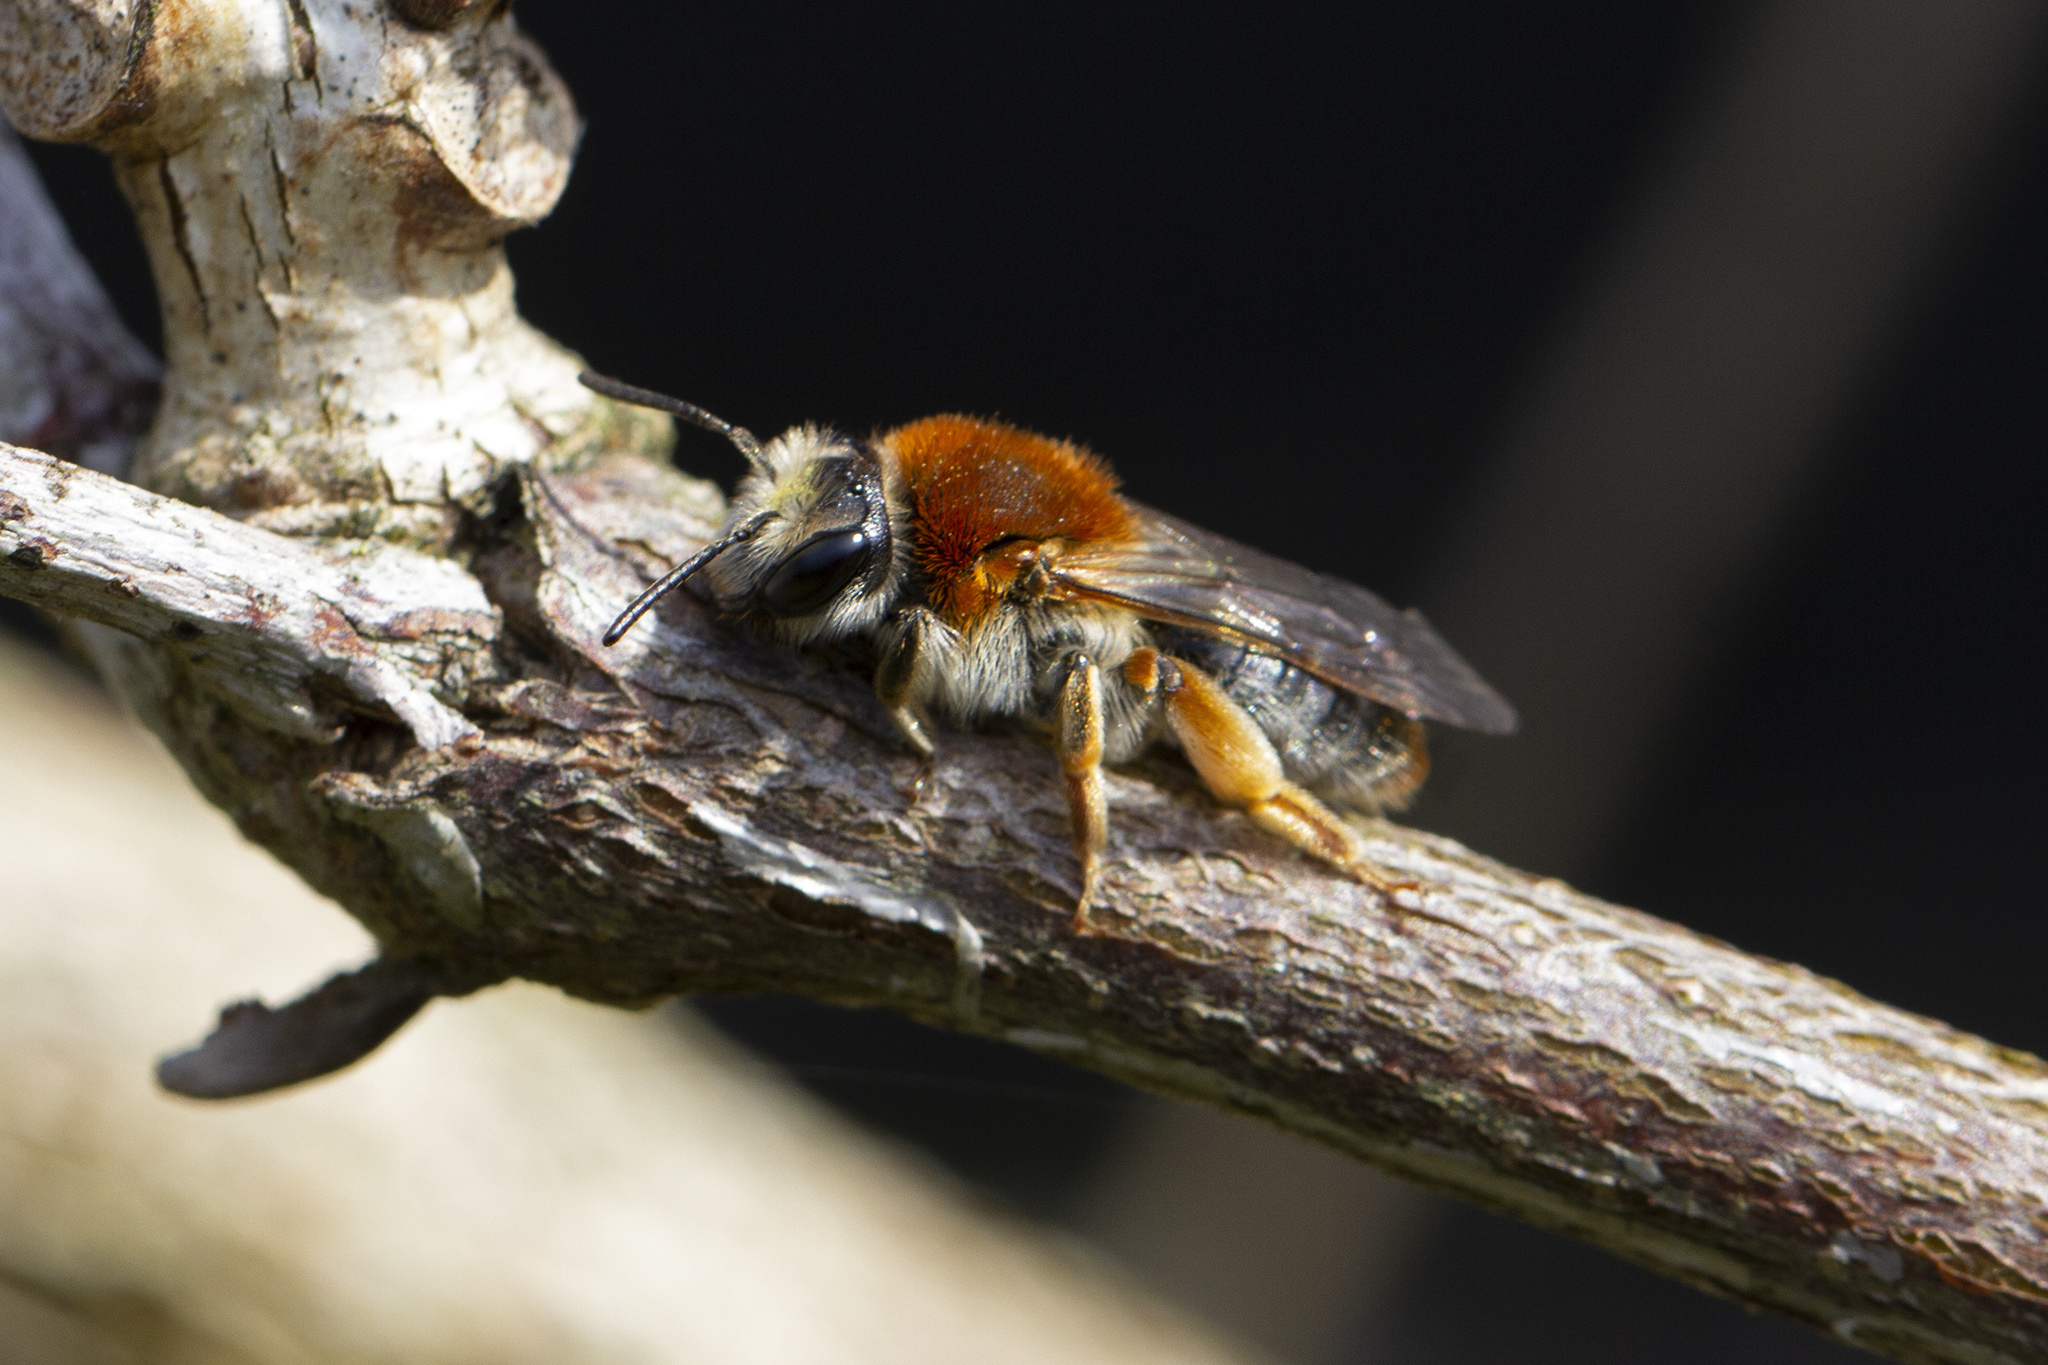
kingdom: Animalia
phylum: Arthropoda
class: Insecta
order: Hymenoptera
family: Andrenidae
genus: Andrena
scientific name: Andrena haemorrhoa
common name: Early mining bee
